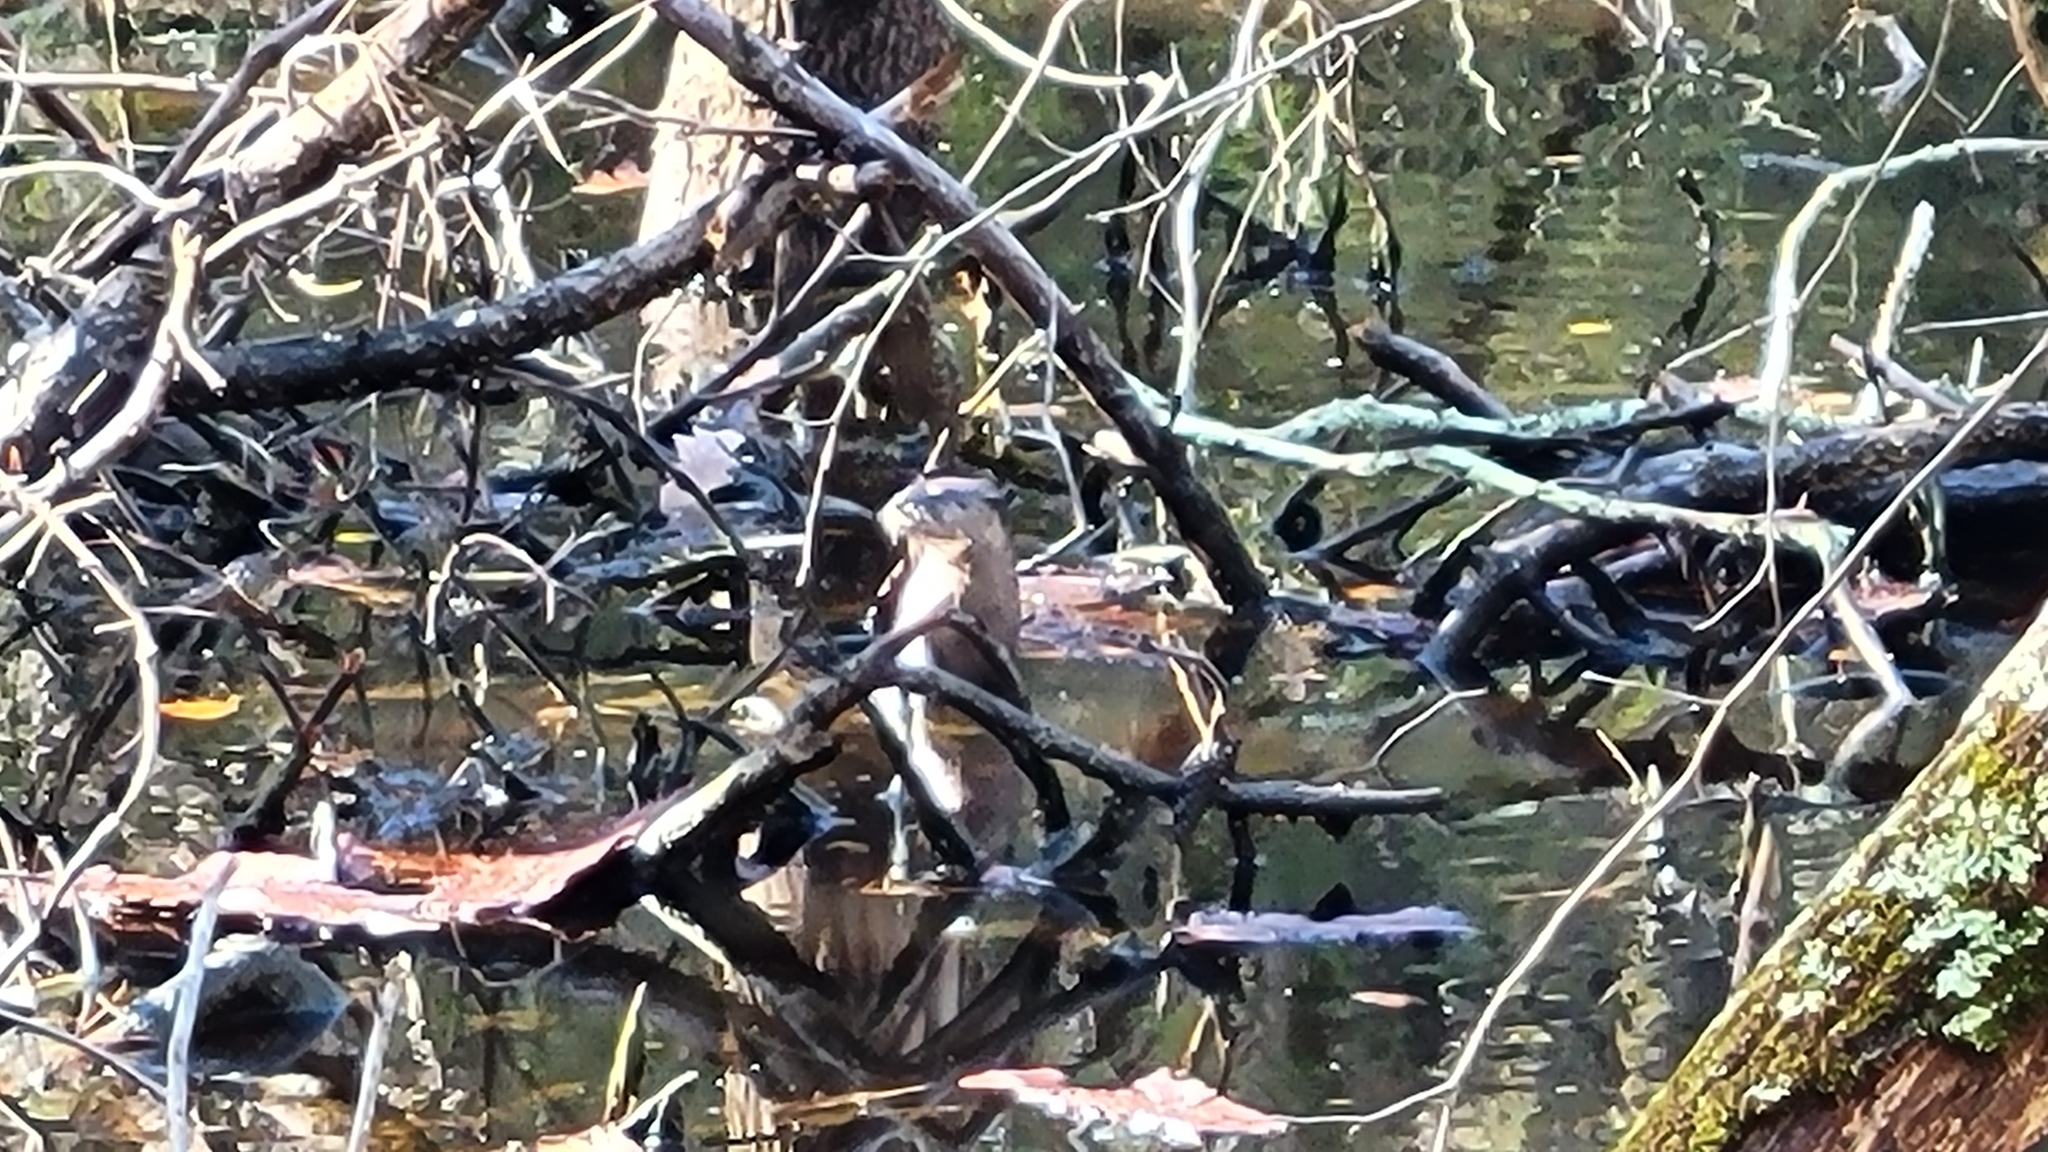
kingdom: Animalia
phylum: Chordata
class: Mammalia
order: Carnivora
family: Mustelidae
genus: Lontra
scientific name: Lontra canadensis
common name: North american river otter
